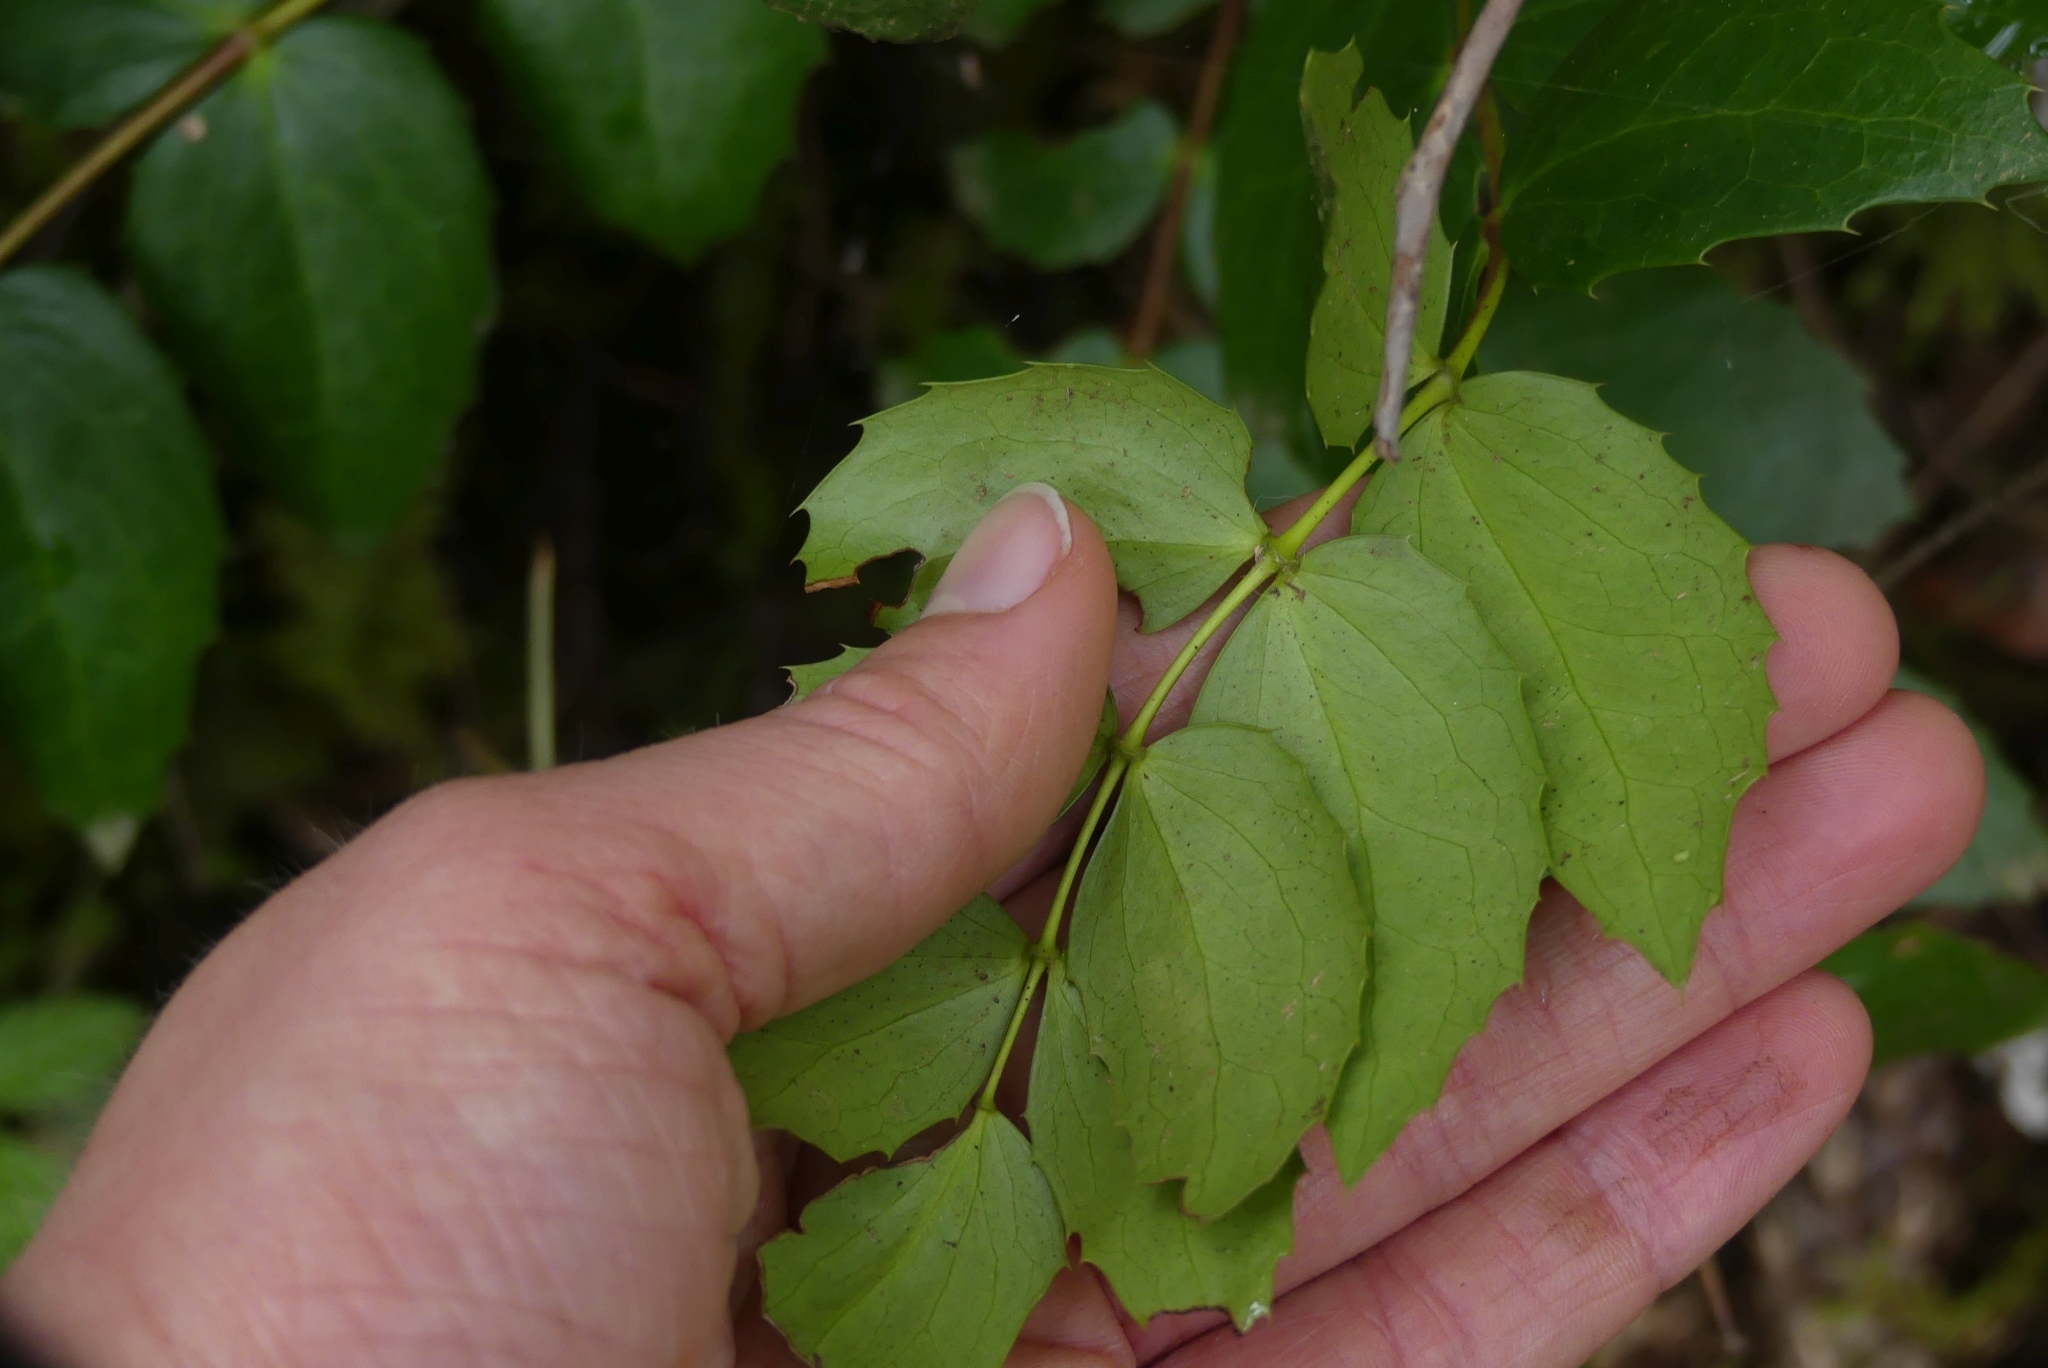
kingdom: Plantae
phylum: Tracheophyta
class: Magnoliopsida
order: Ranunculales
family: Berberidaceae
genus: Mahonia
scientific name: Mahonia nervosa
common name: Cascade oregon-grape
